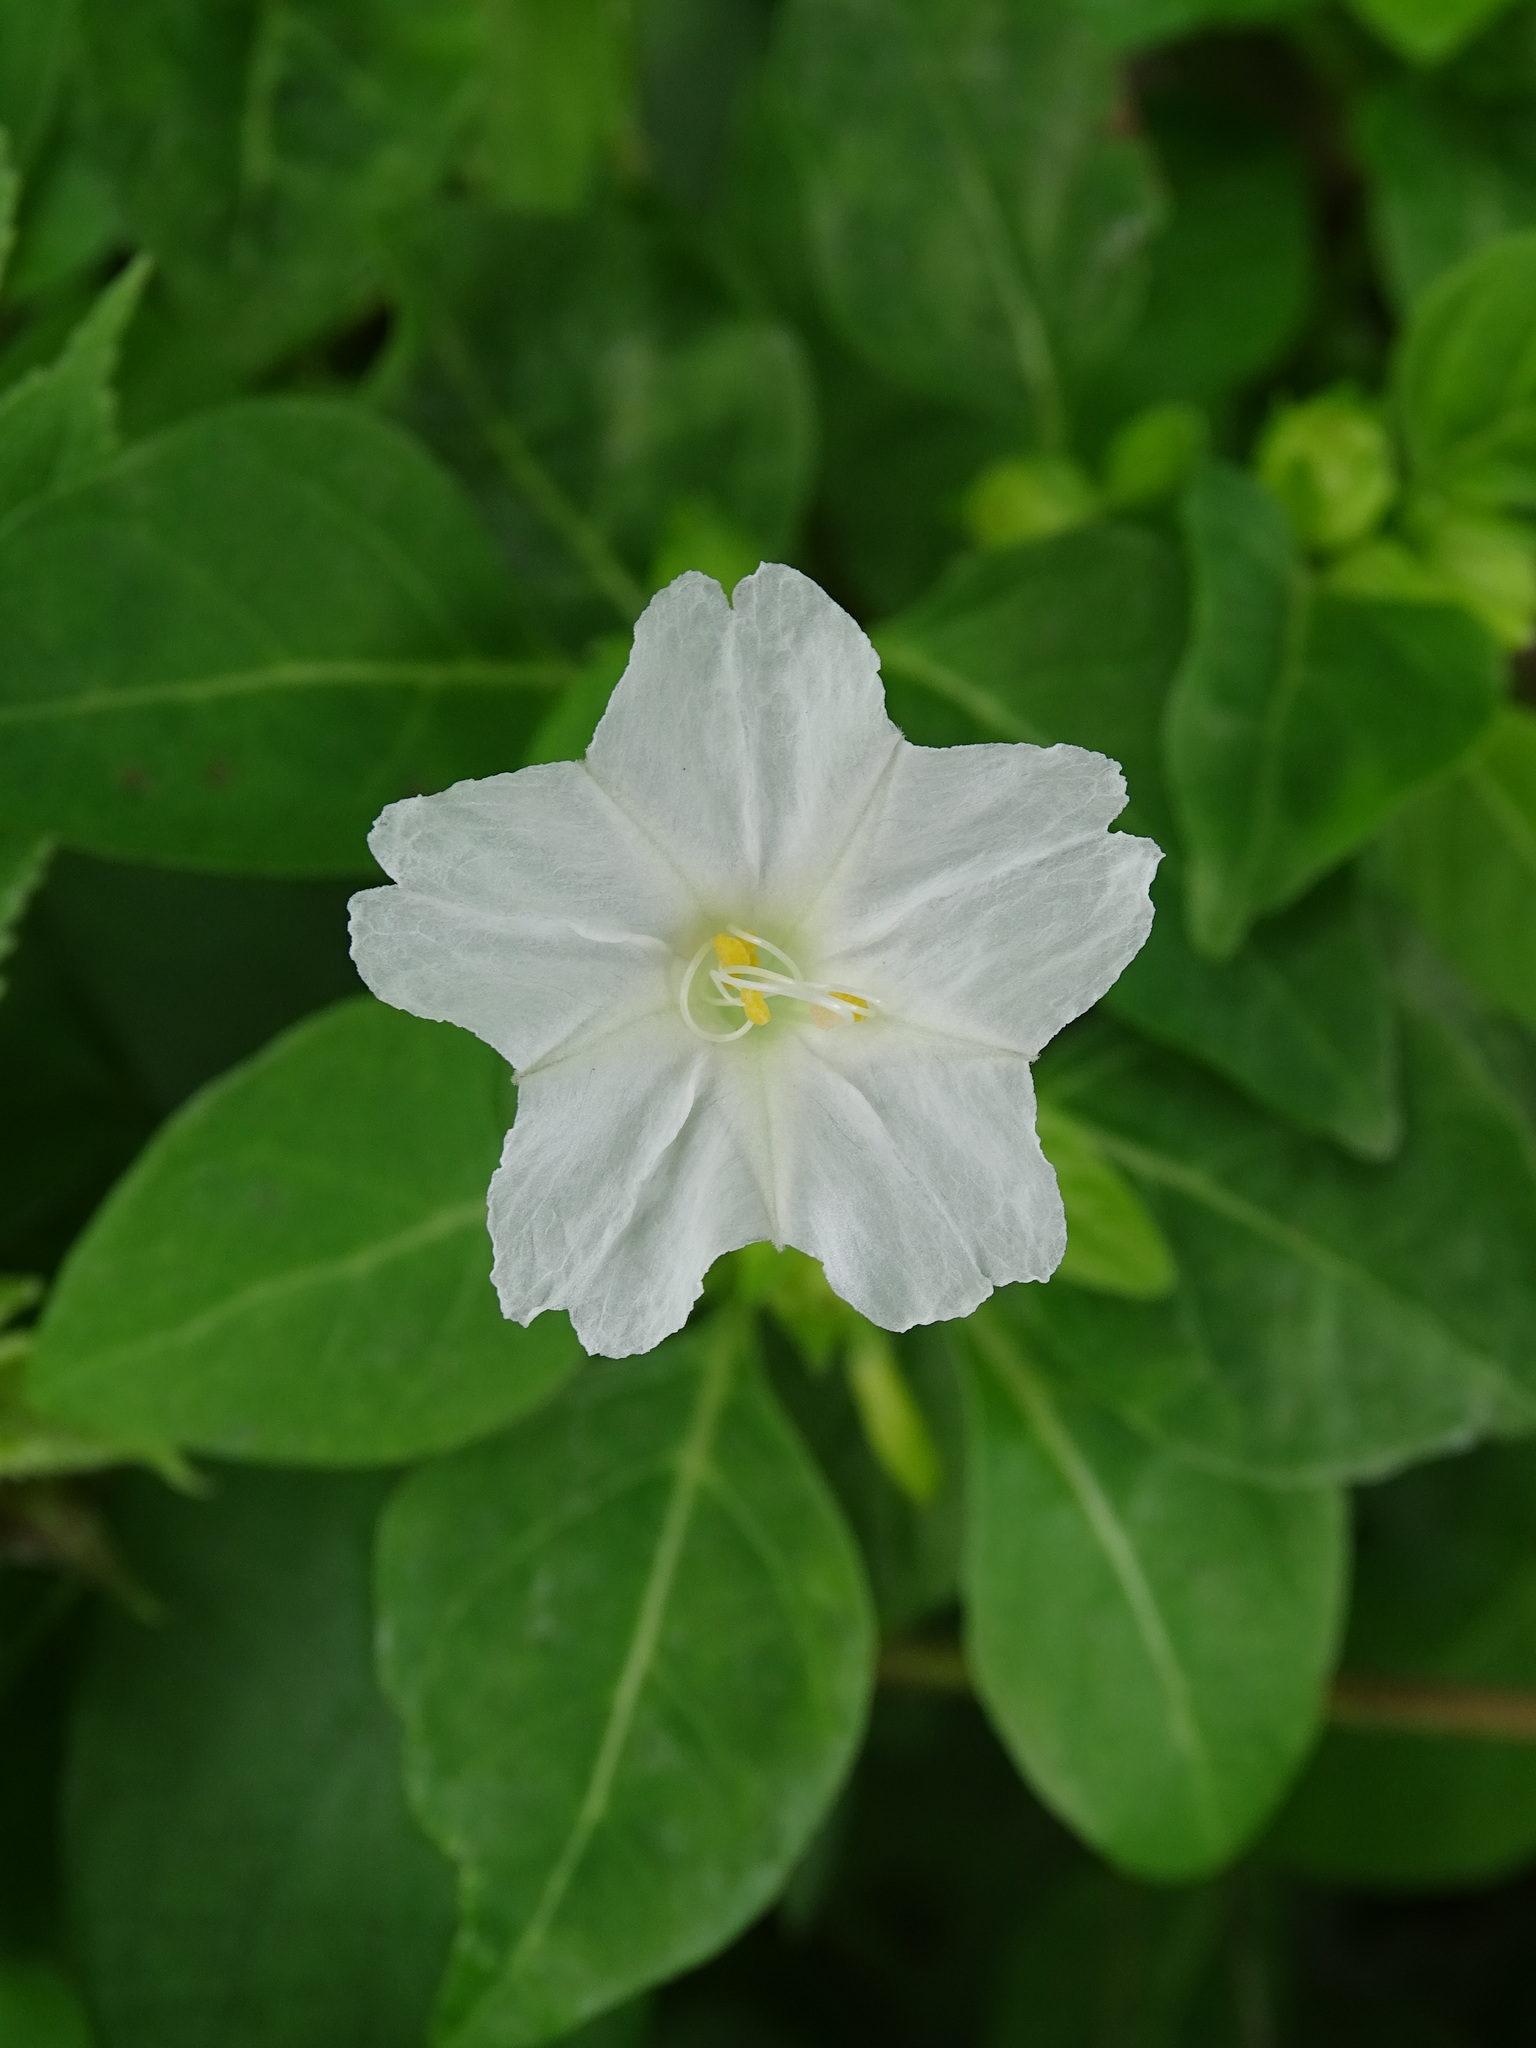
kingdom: Plantae
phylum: Tracheophyta
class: Magnoliopsida
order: Caryophyllales
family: Nyctaginaceae
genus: Mirabilis
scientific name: Mirabilis jalapa
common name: Marvel-of-peru
